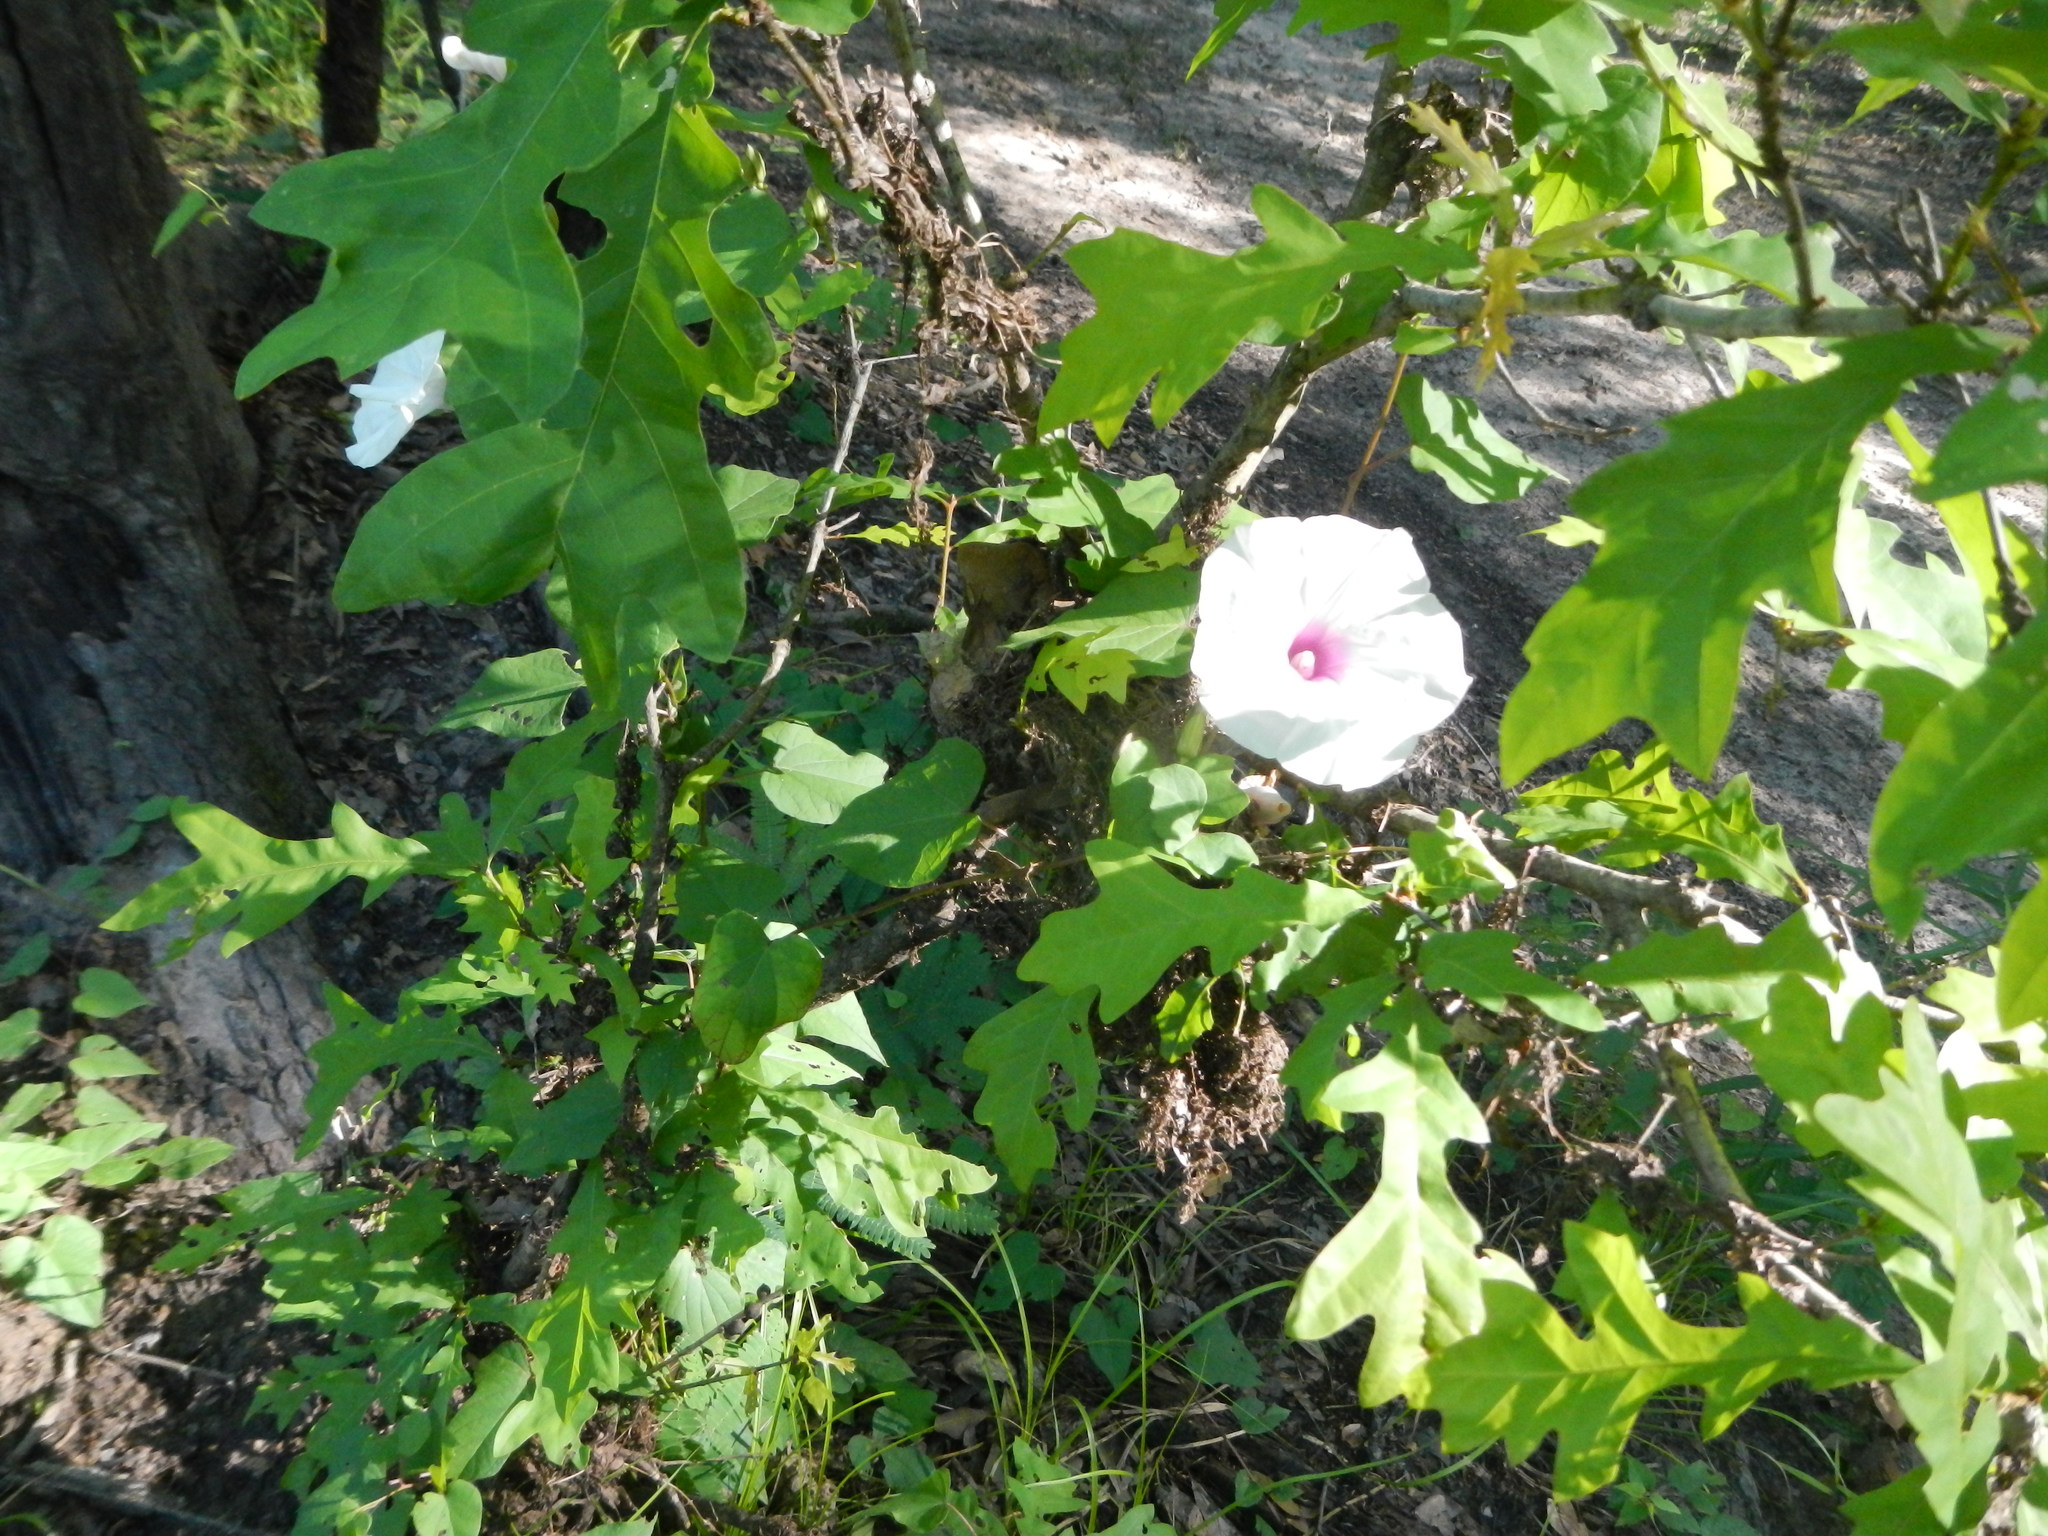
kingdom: Plantae
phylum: Tracheophyta
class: Magnoliopsida
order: Solanales
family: Convolvulaceae
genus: Ipomoea
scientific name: Ipomoea pandurata
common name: Man-of-the-earth
